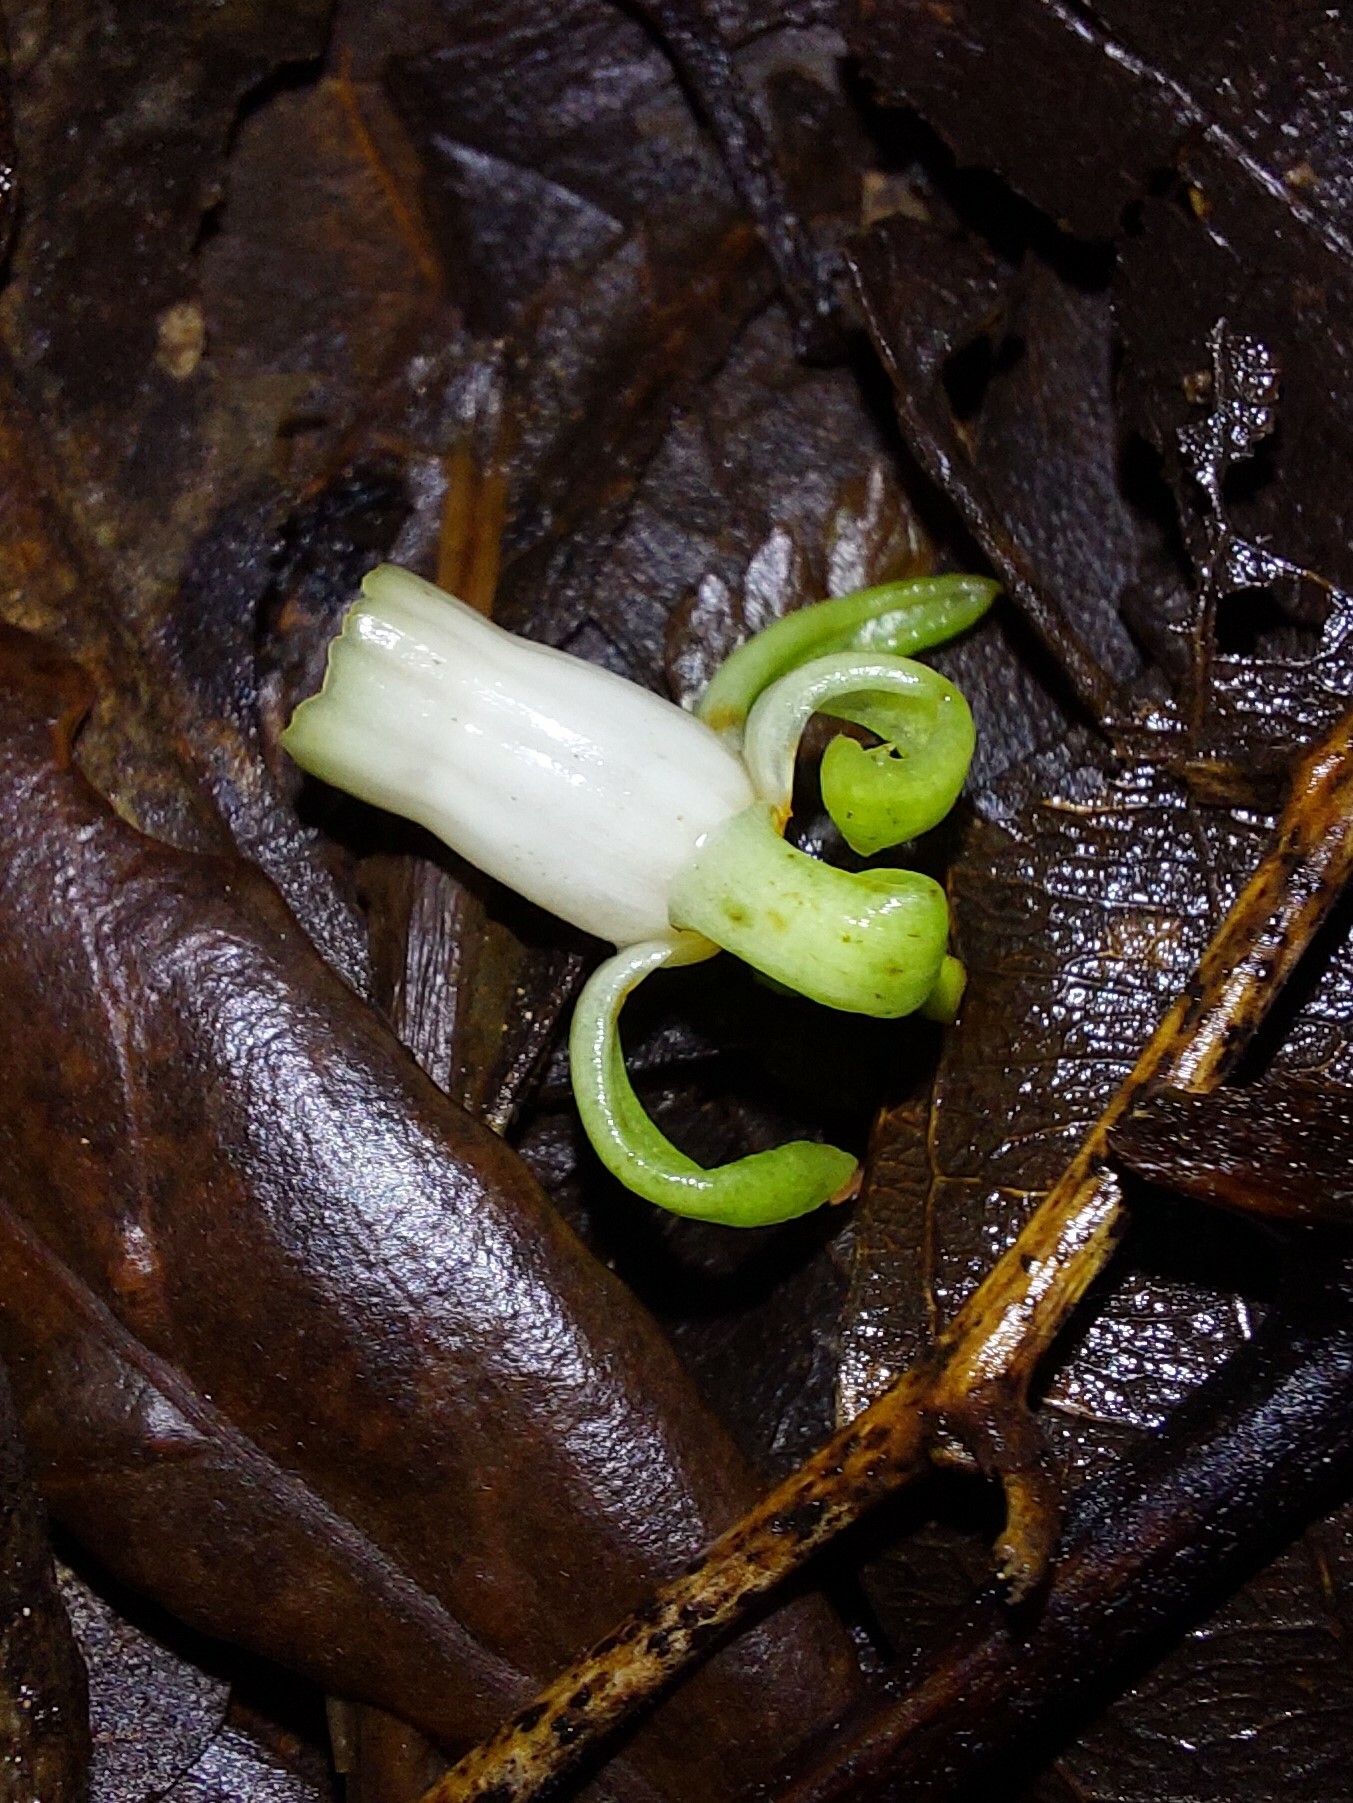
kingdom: Plantae
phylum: Tracheophyta
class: Magnoliopsida
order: Sapindales
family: Meliaceae
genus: Didymocheton
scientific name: Didymocheton spectabilis
